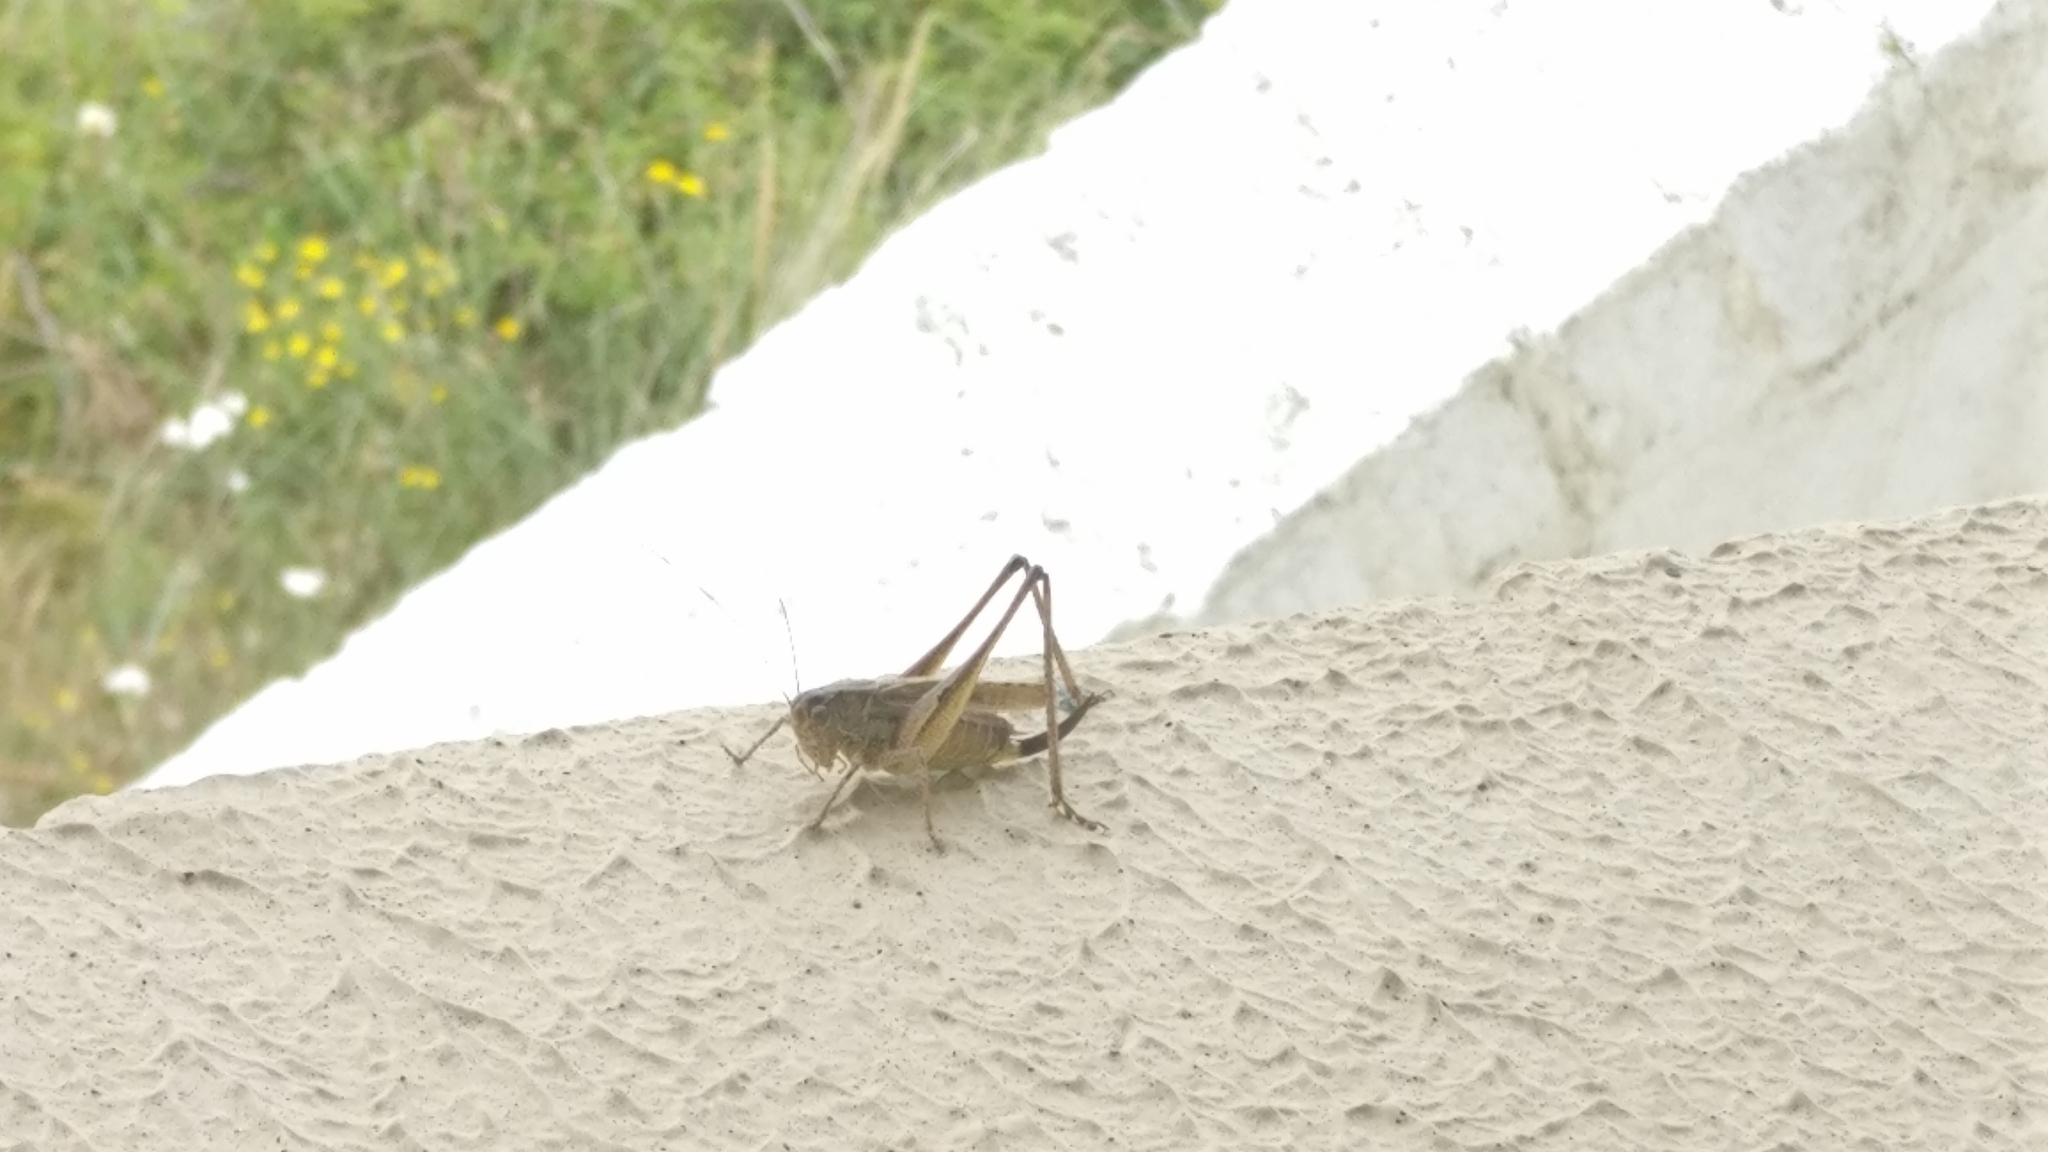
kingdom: Animalia
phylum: Arthropoda
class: Insecta
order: Orthoptera
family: Tettigoniidae
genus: Platycleis
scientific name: Platycleis albopunctata
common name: Grey bush-cricket
